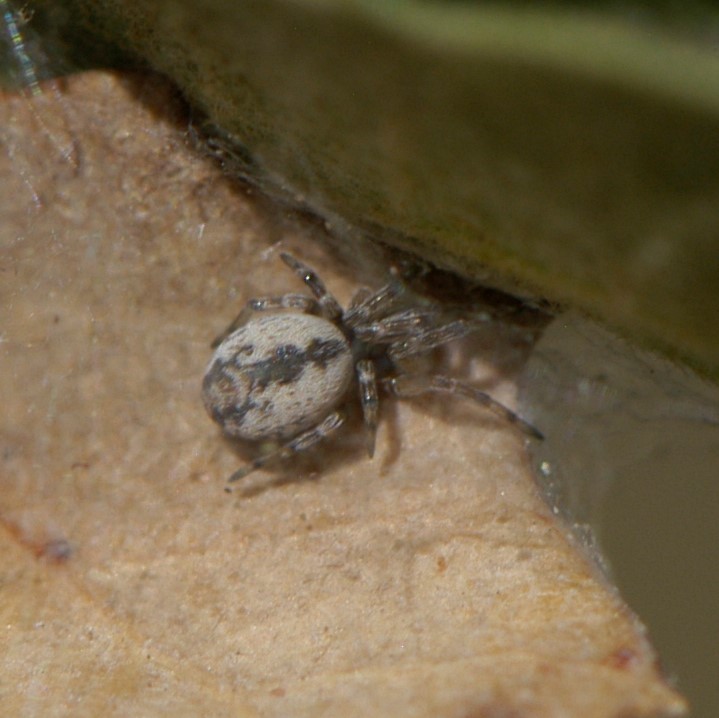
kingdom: Animalia
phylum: Arthropoda
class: Arachnida
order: Araneae
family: Dictynidae
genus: Dictyna
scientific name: Dictyna
